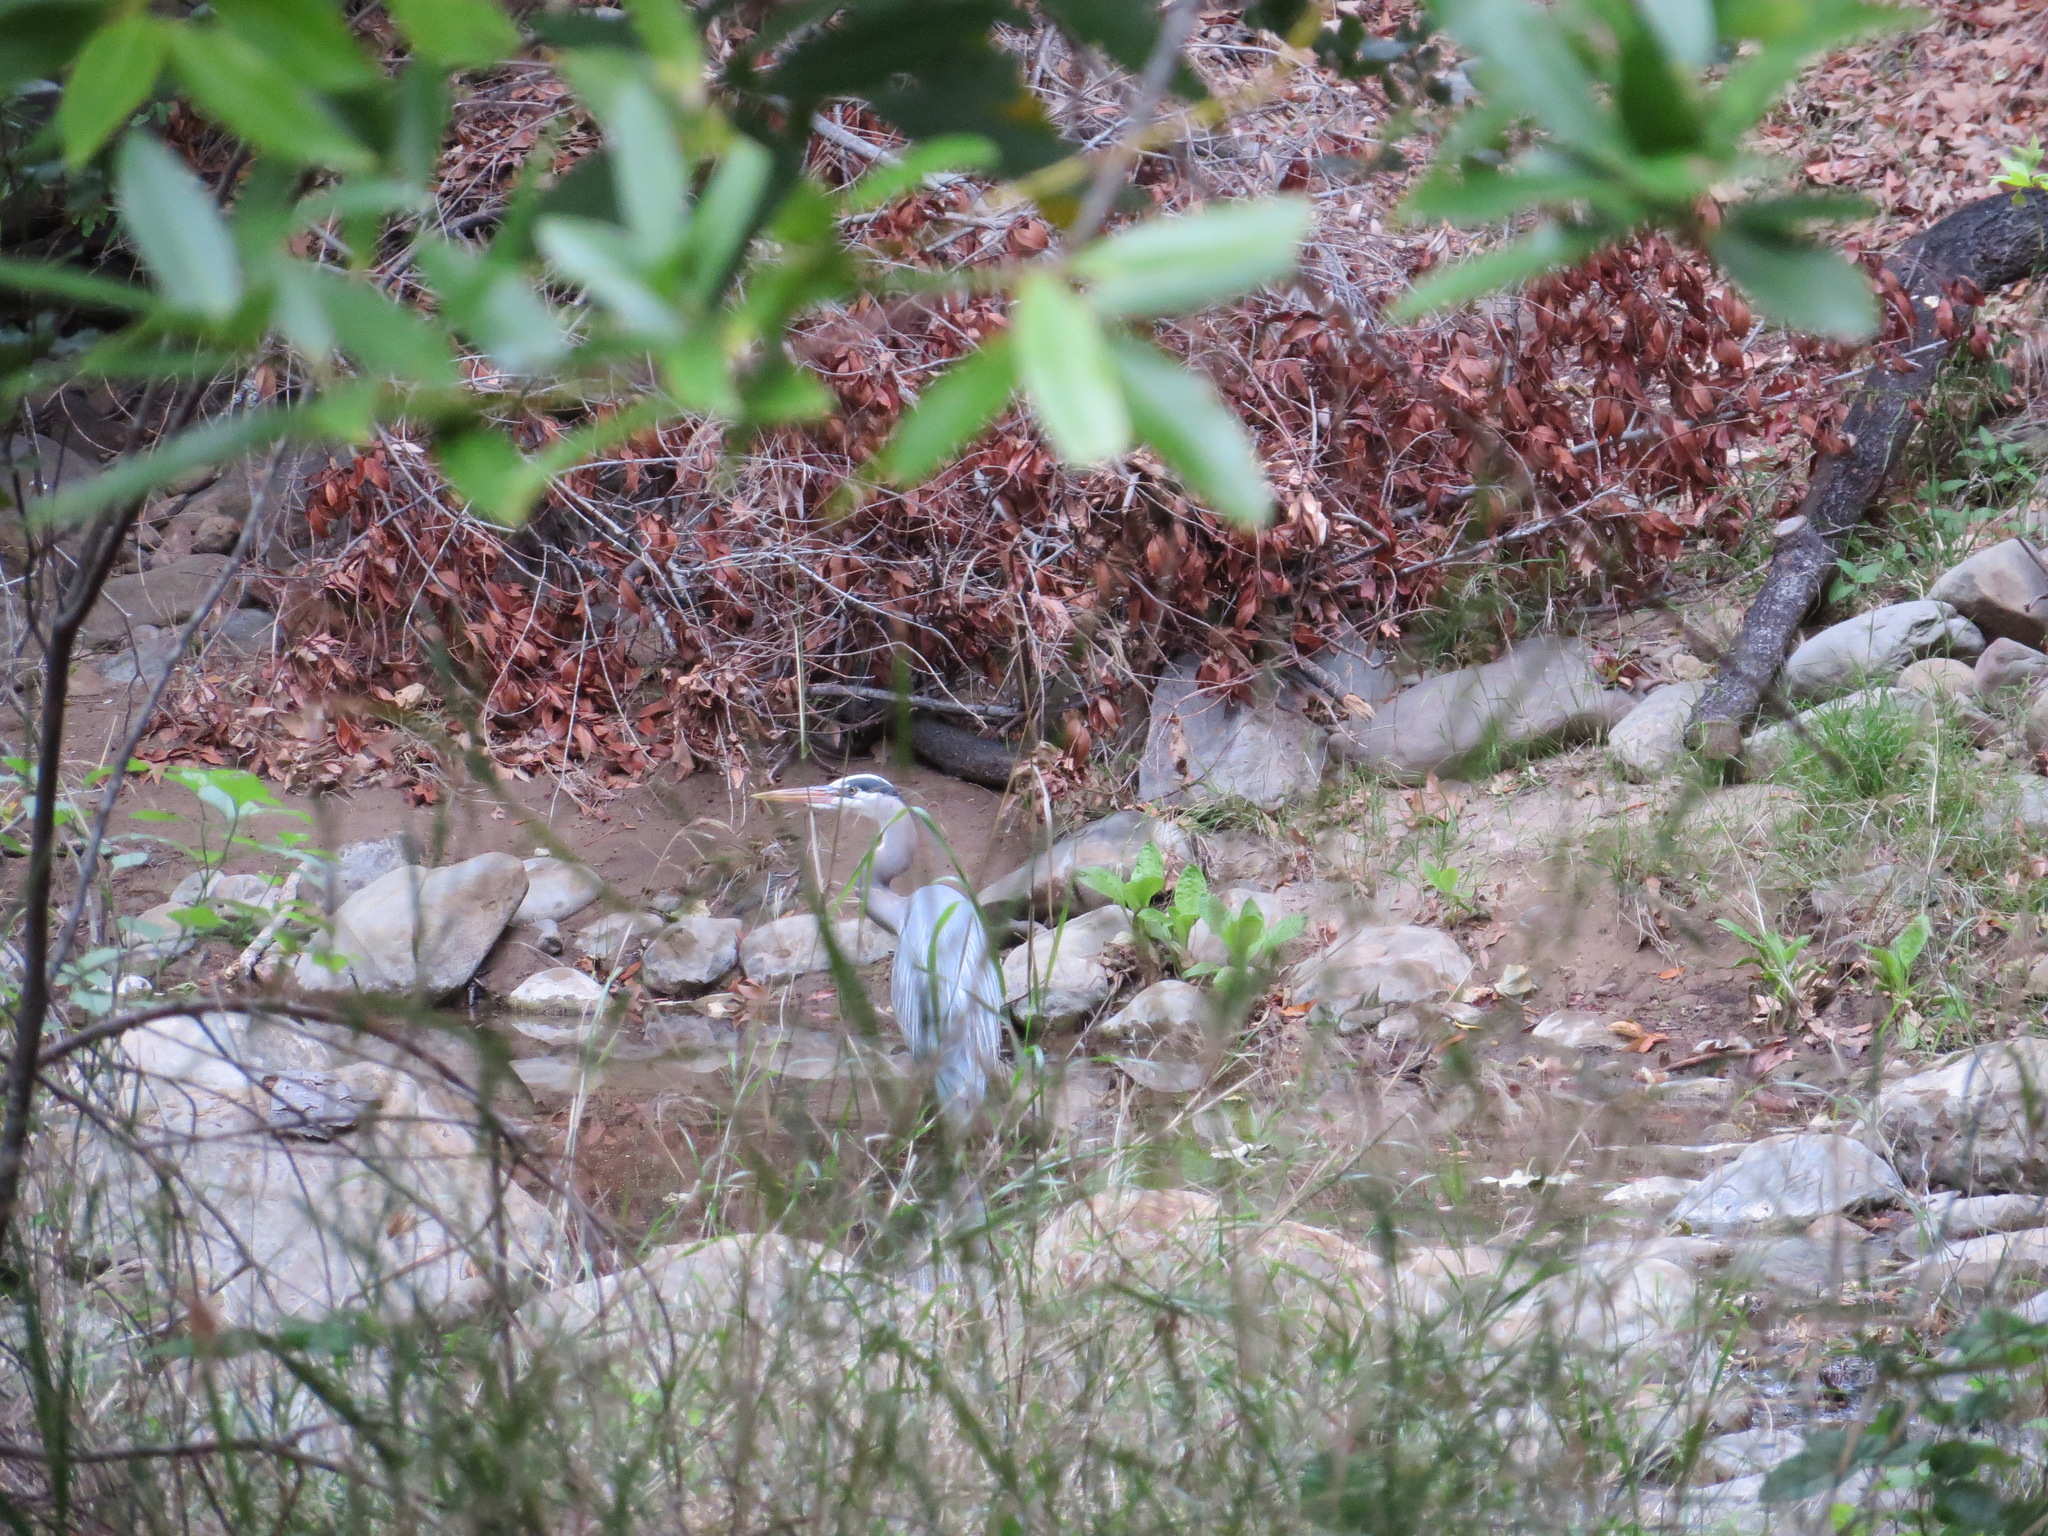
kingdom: Animalia
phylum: Chordata
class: Aves
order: Pelecaniformes
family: Ardeidae
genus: Ardea
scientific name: Ardea herodias
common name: Great blue heron
